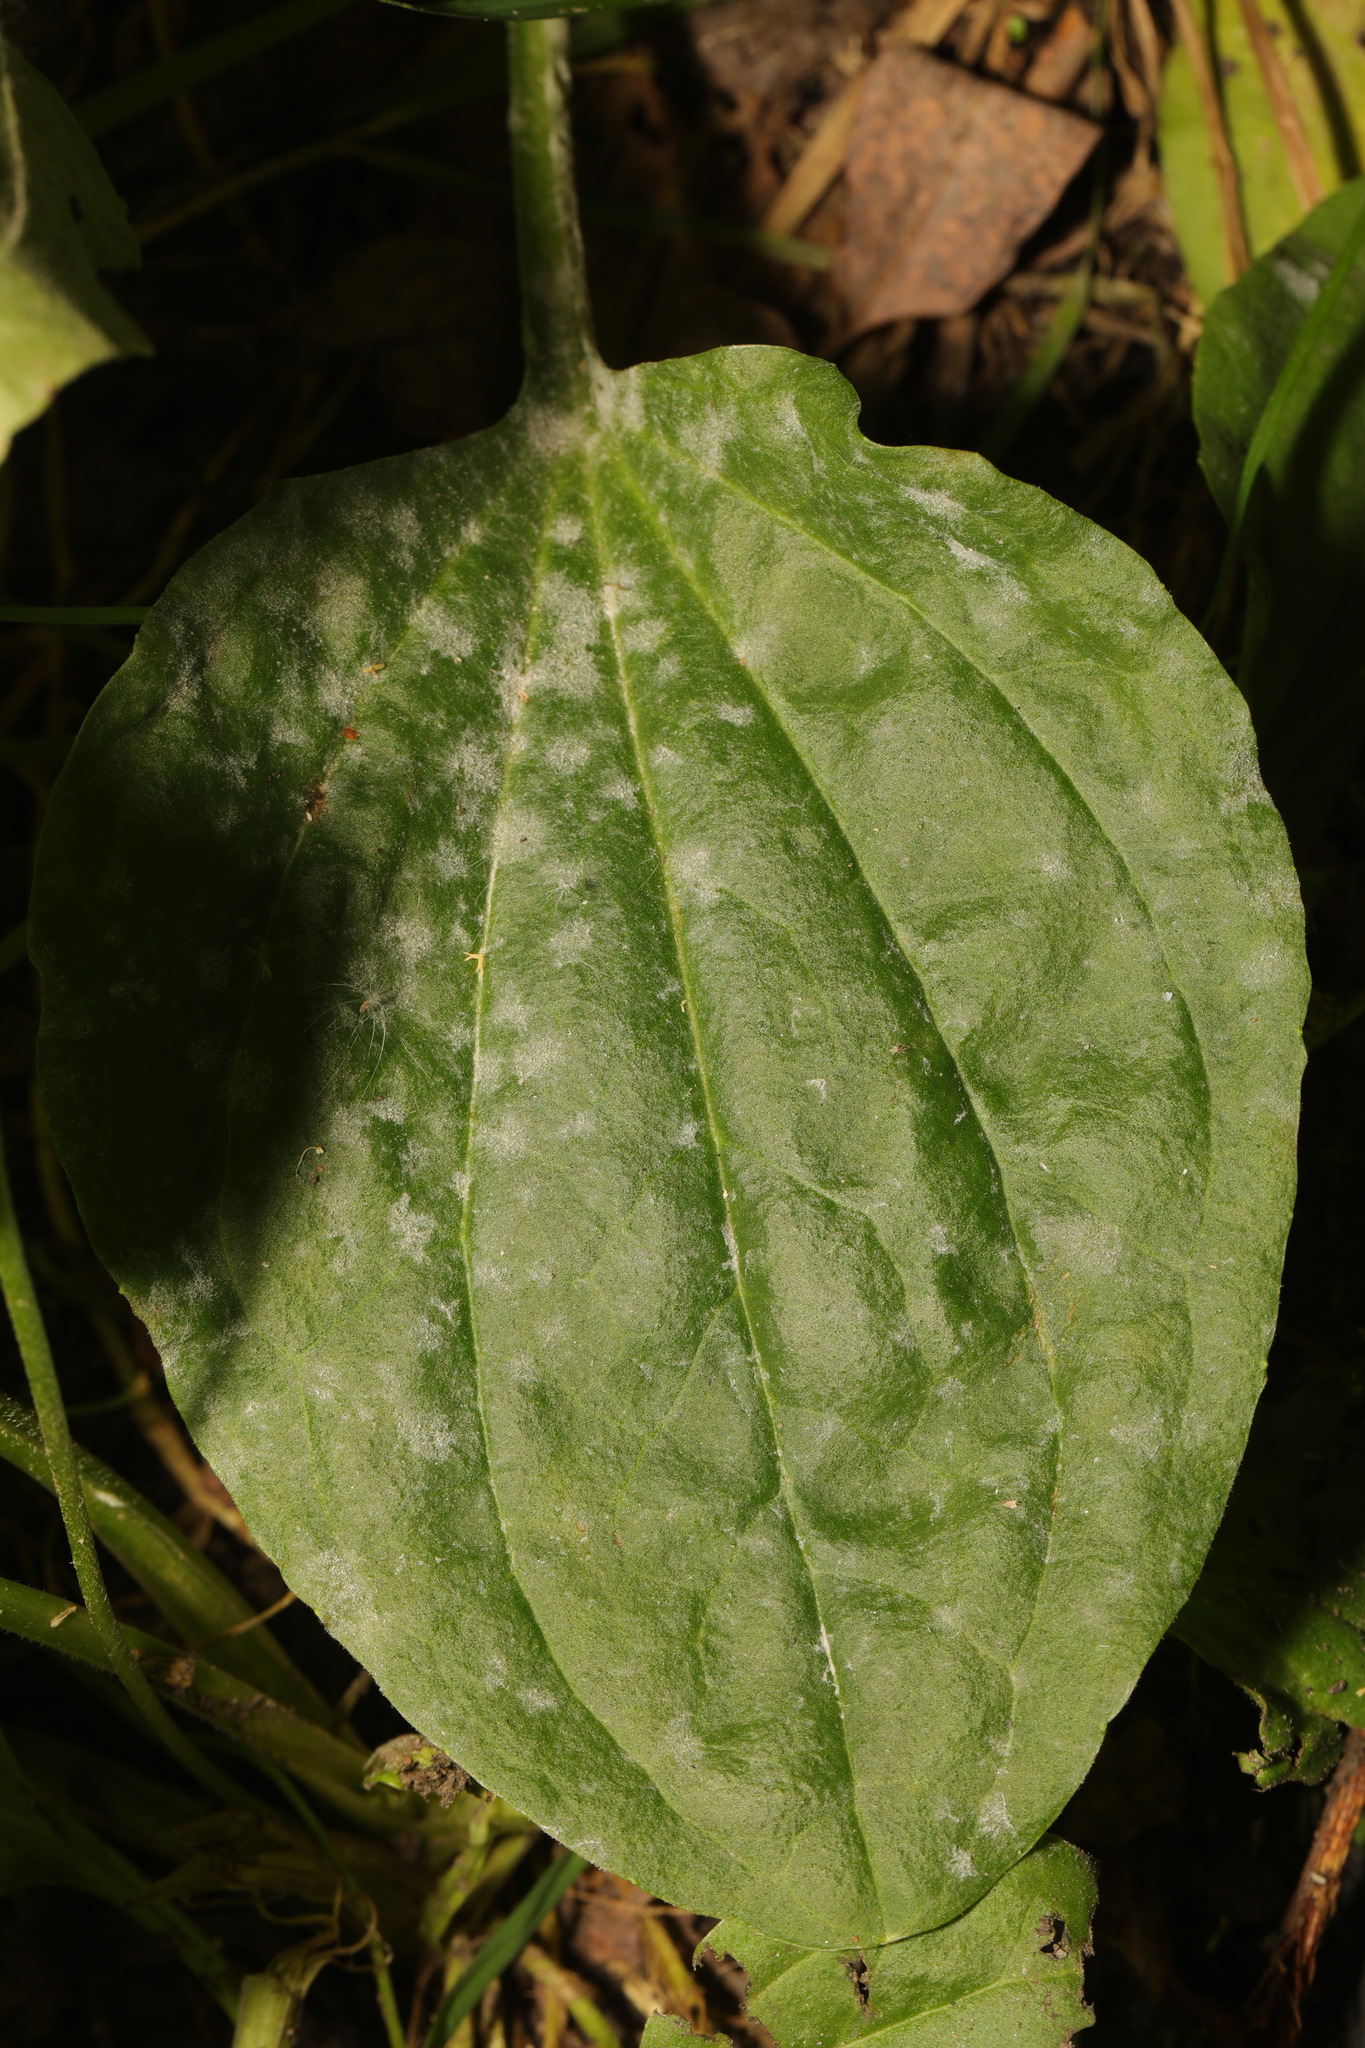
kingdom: Fungi
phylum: Ascomycota
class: Leotiomycetes
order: Helotiales
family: Erysiphaceae
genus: Golovinomyces
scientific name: Golovinomyces sordidus
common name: Plantain mildew
